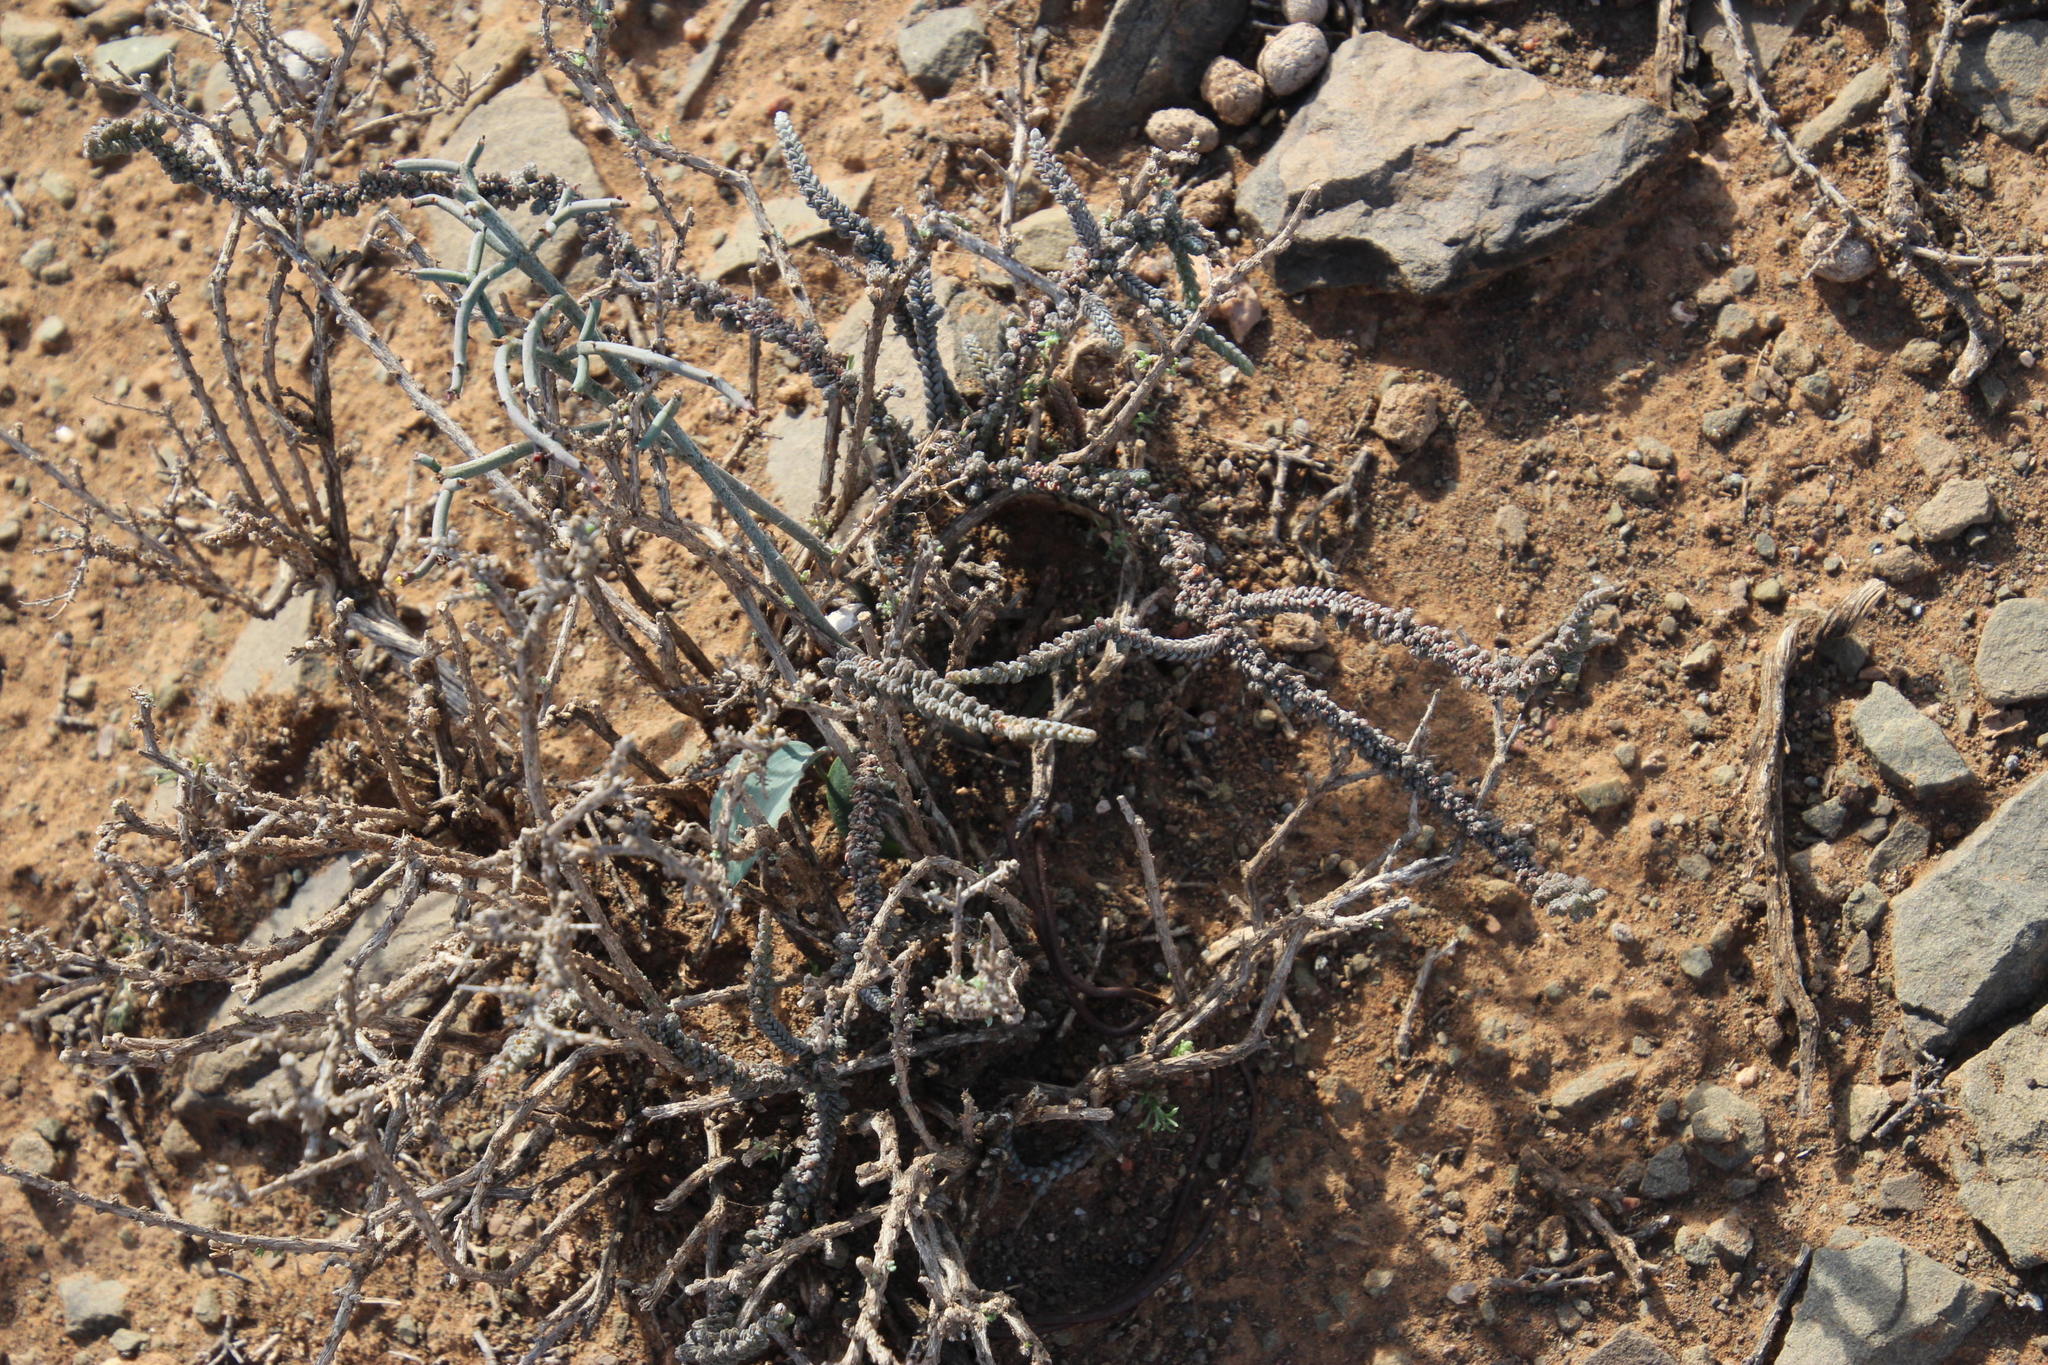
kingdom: Plantae
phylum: Tracheophyta
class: Magnoliopsida
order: Saxifragales
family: Crassulaceae
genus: Crassula
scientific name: Crassula muscosa
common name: Toy-cypress
